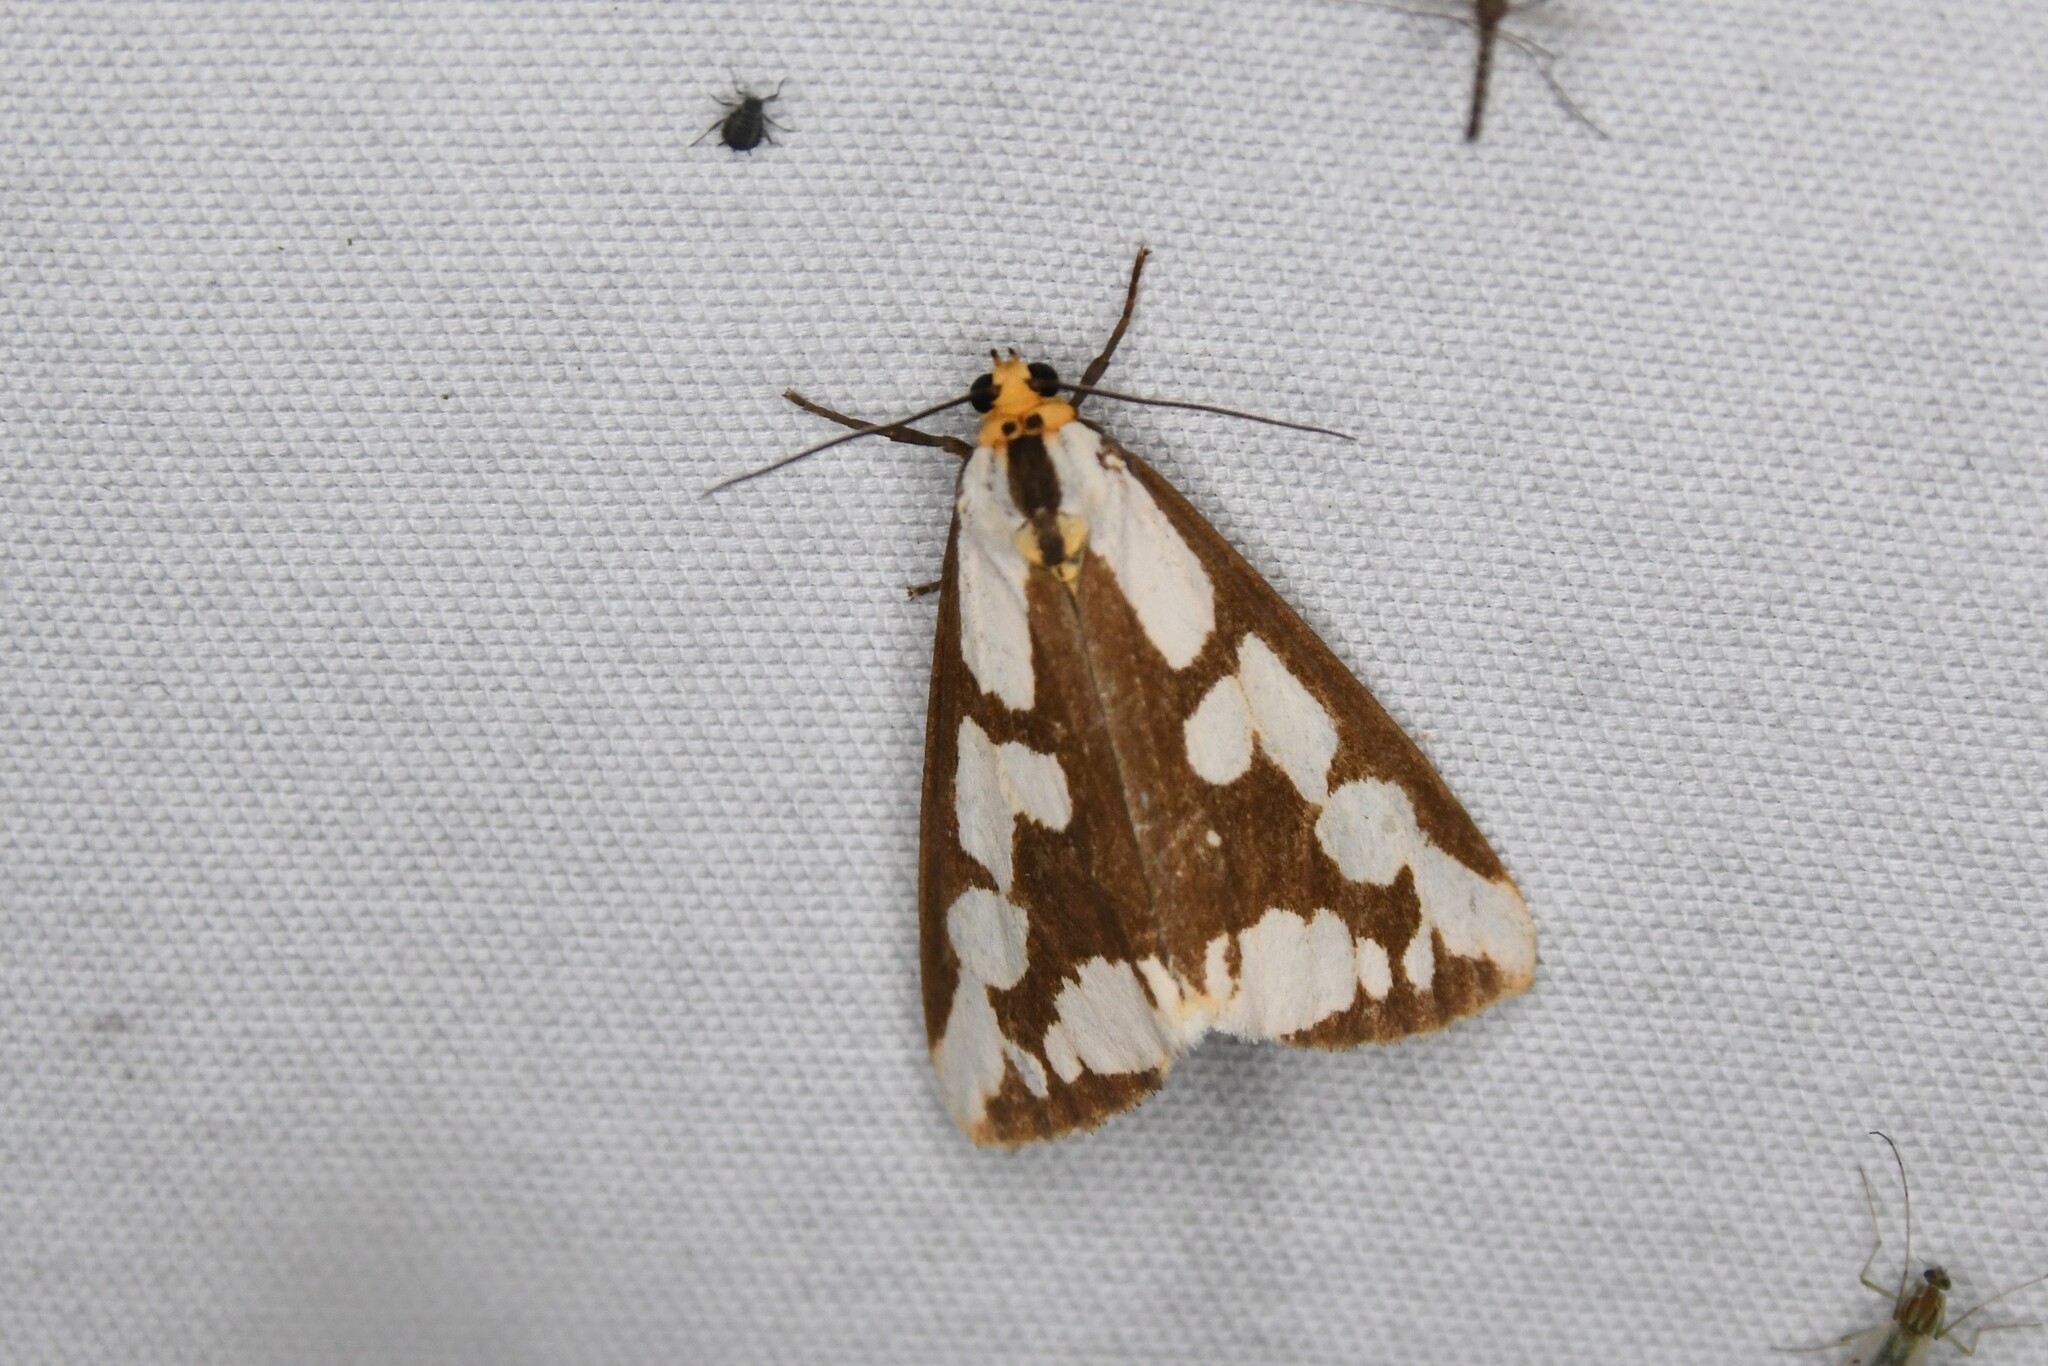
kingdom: Animalia
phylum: Arthropoda
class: Insecta
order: Lepidoptera
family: Erebidae
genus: Haploa
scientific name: Haploa confusa
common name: Confused haploa moth
